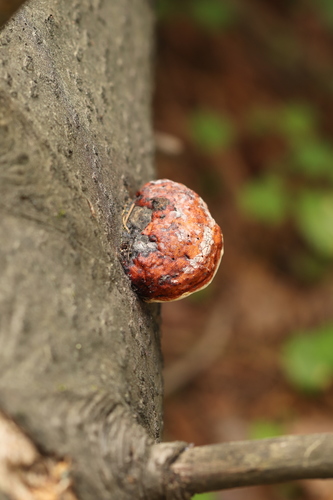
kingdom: Fungi
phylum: Basidiomycota
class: Agaricomycetes
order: Polyporales
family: Fomitopsidaceae
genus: Fomitopsis
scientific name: Fomitopsis pinicola
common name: Red-belted bracket
